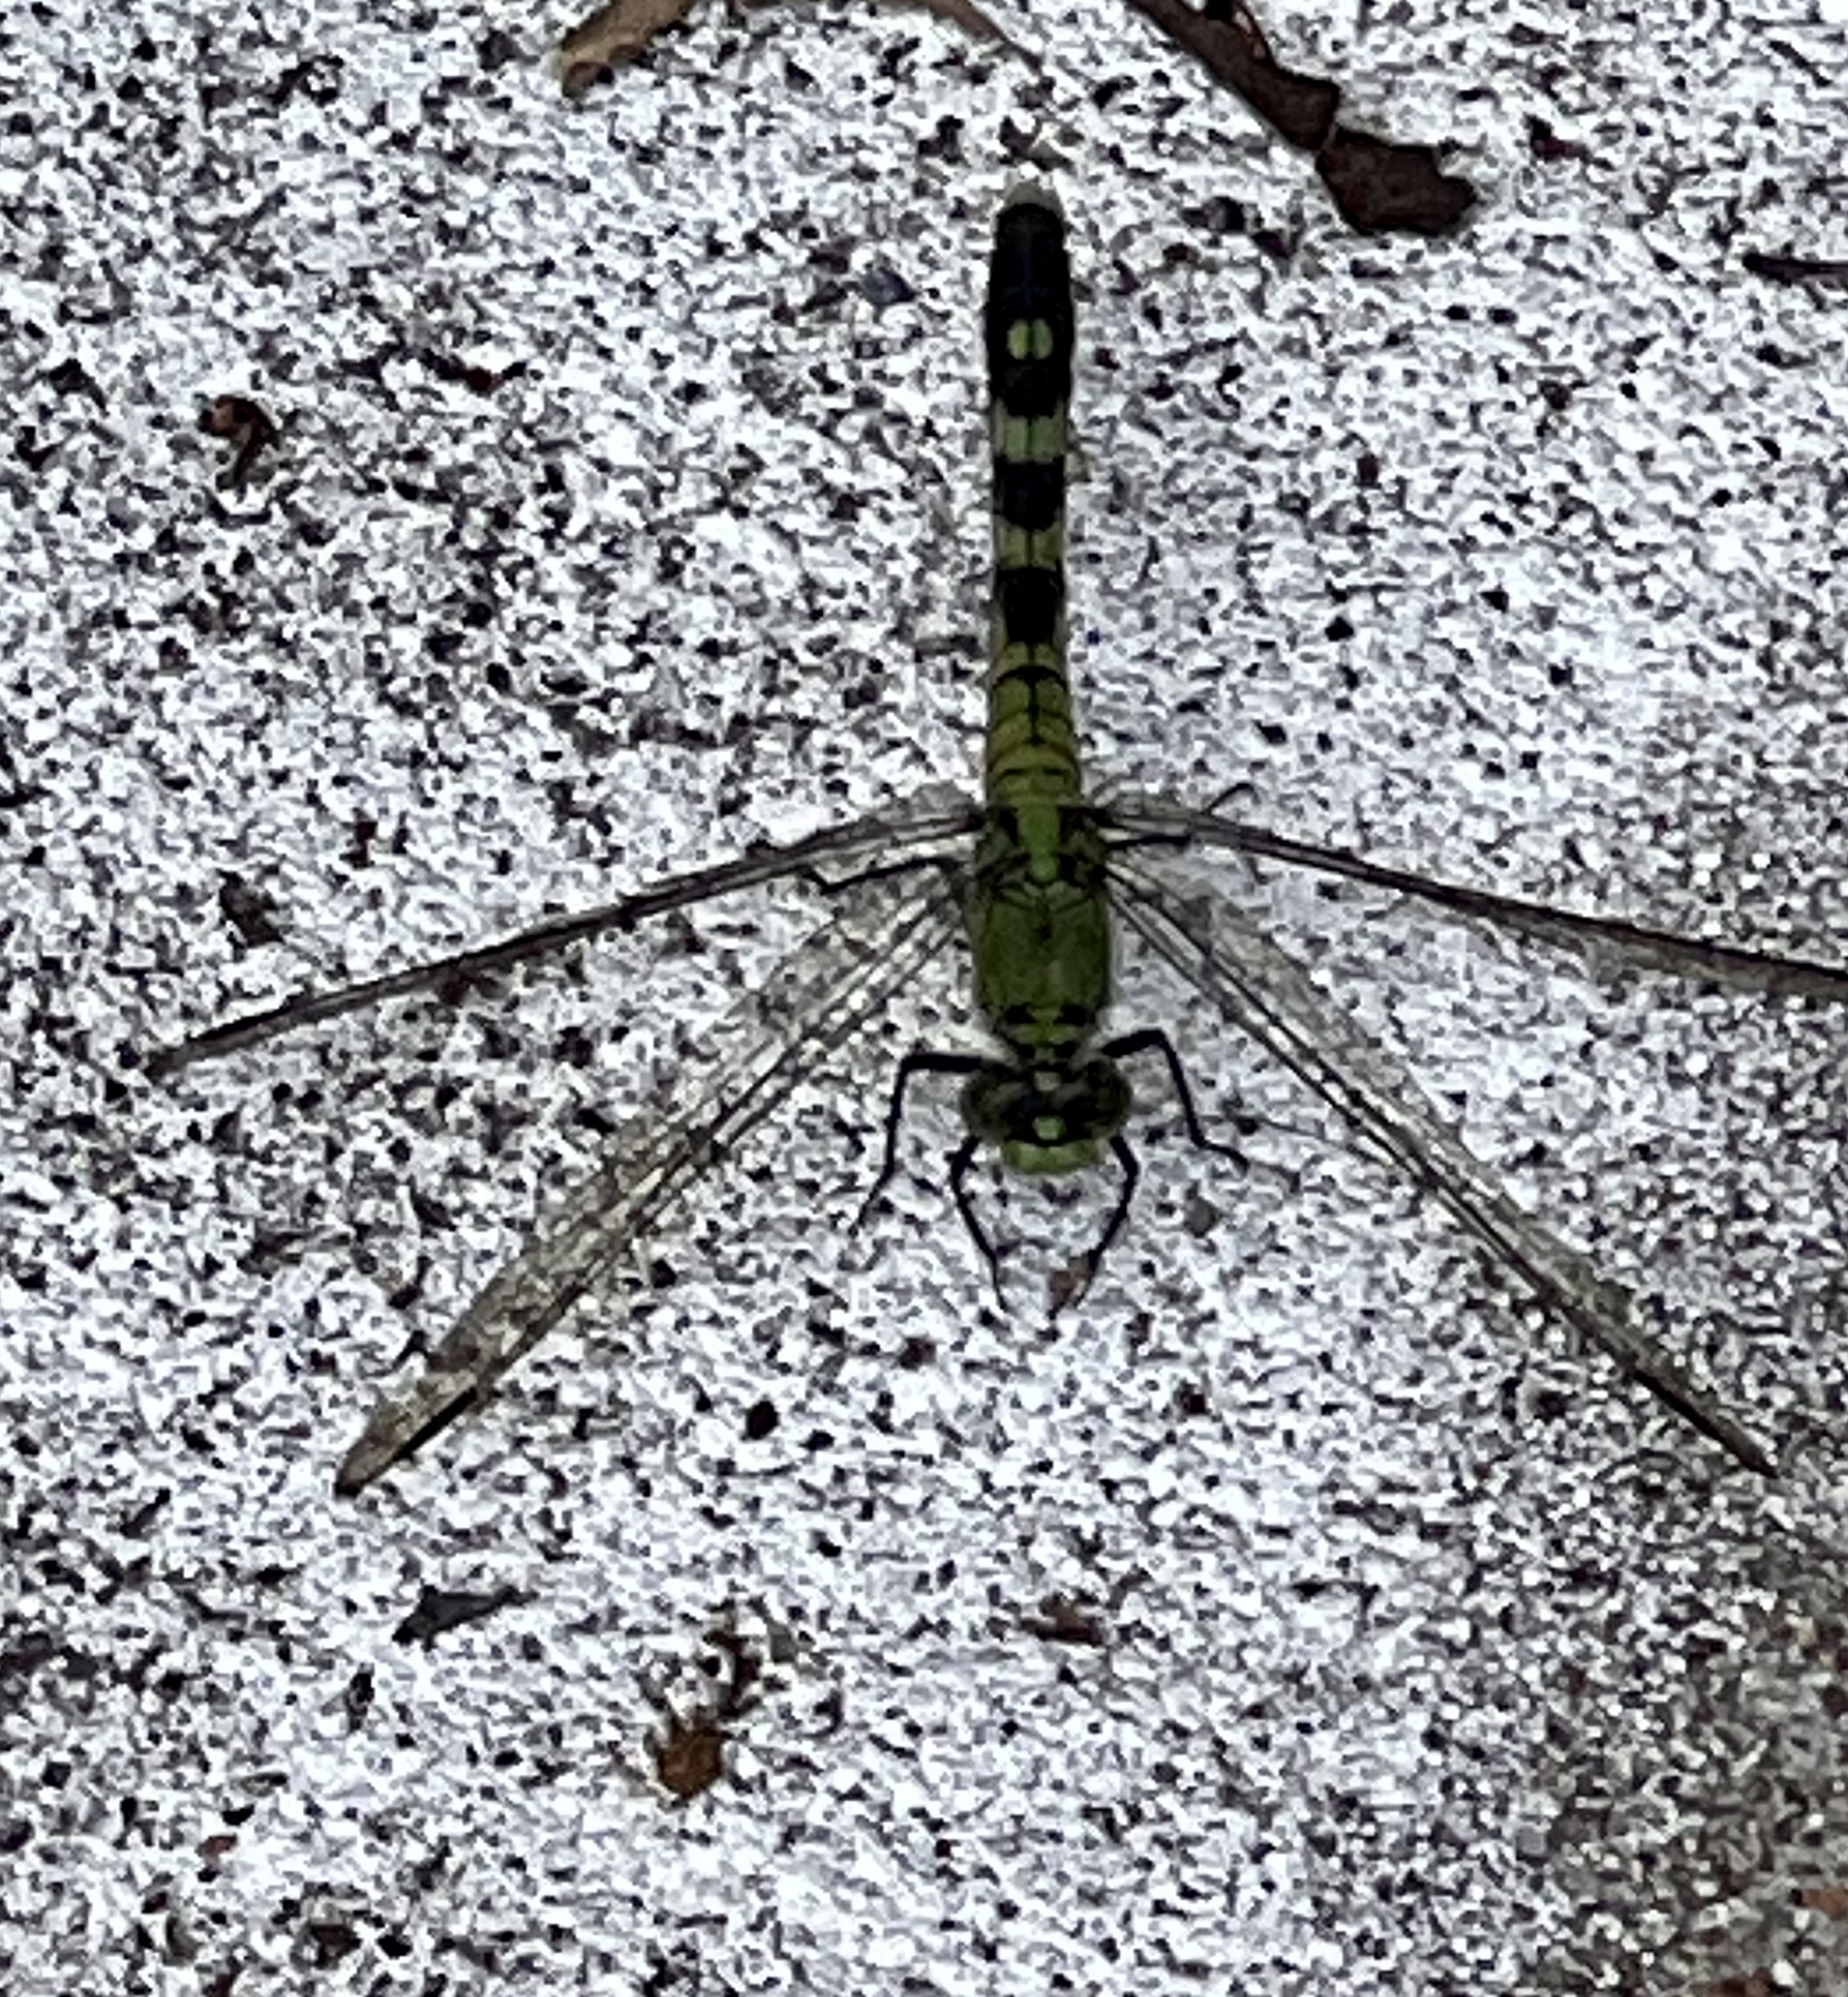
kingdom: Animalia
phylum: Arthropoda
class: Insecta
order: Odonata
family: Libellulidae
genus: Erythemis
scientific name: Erythemis simplicicollis
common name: Eastern pondhawk
